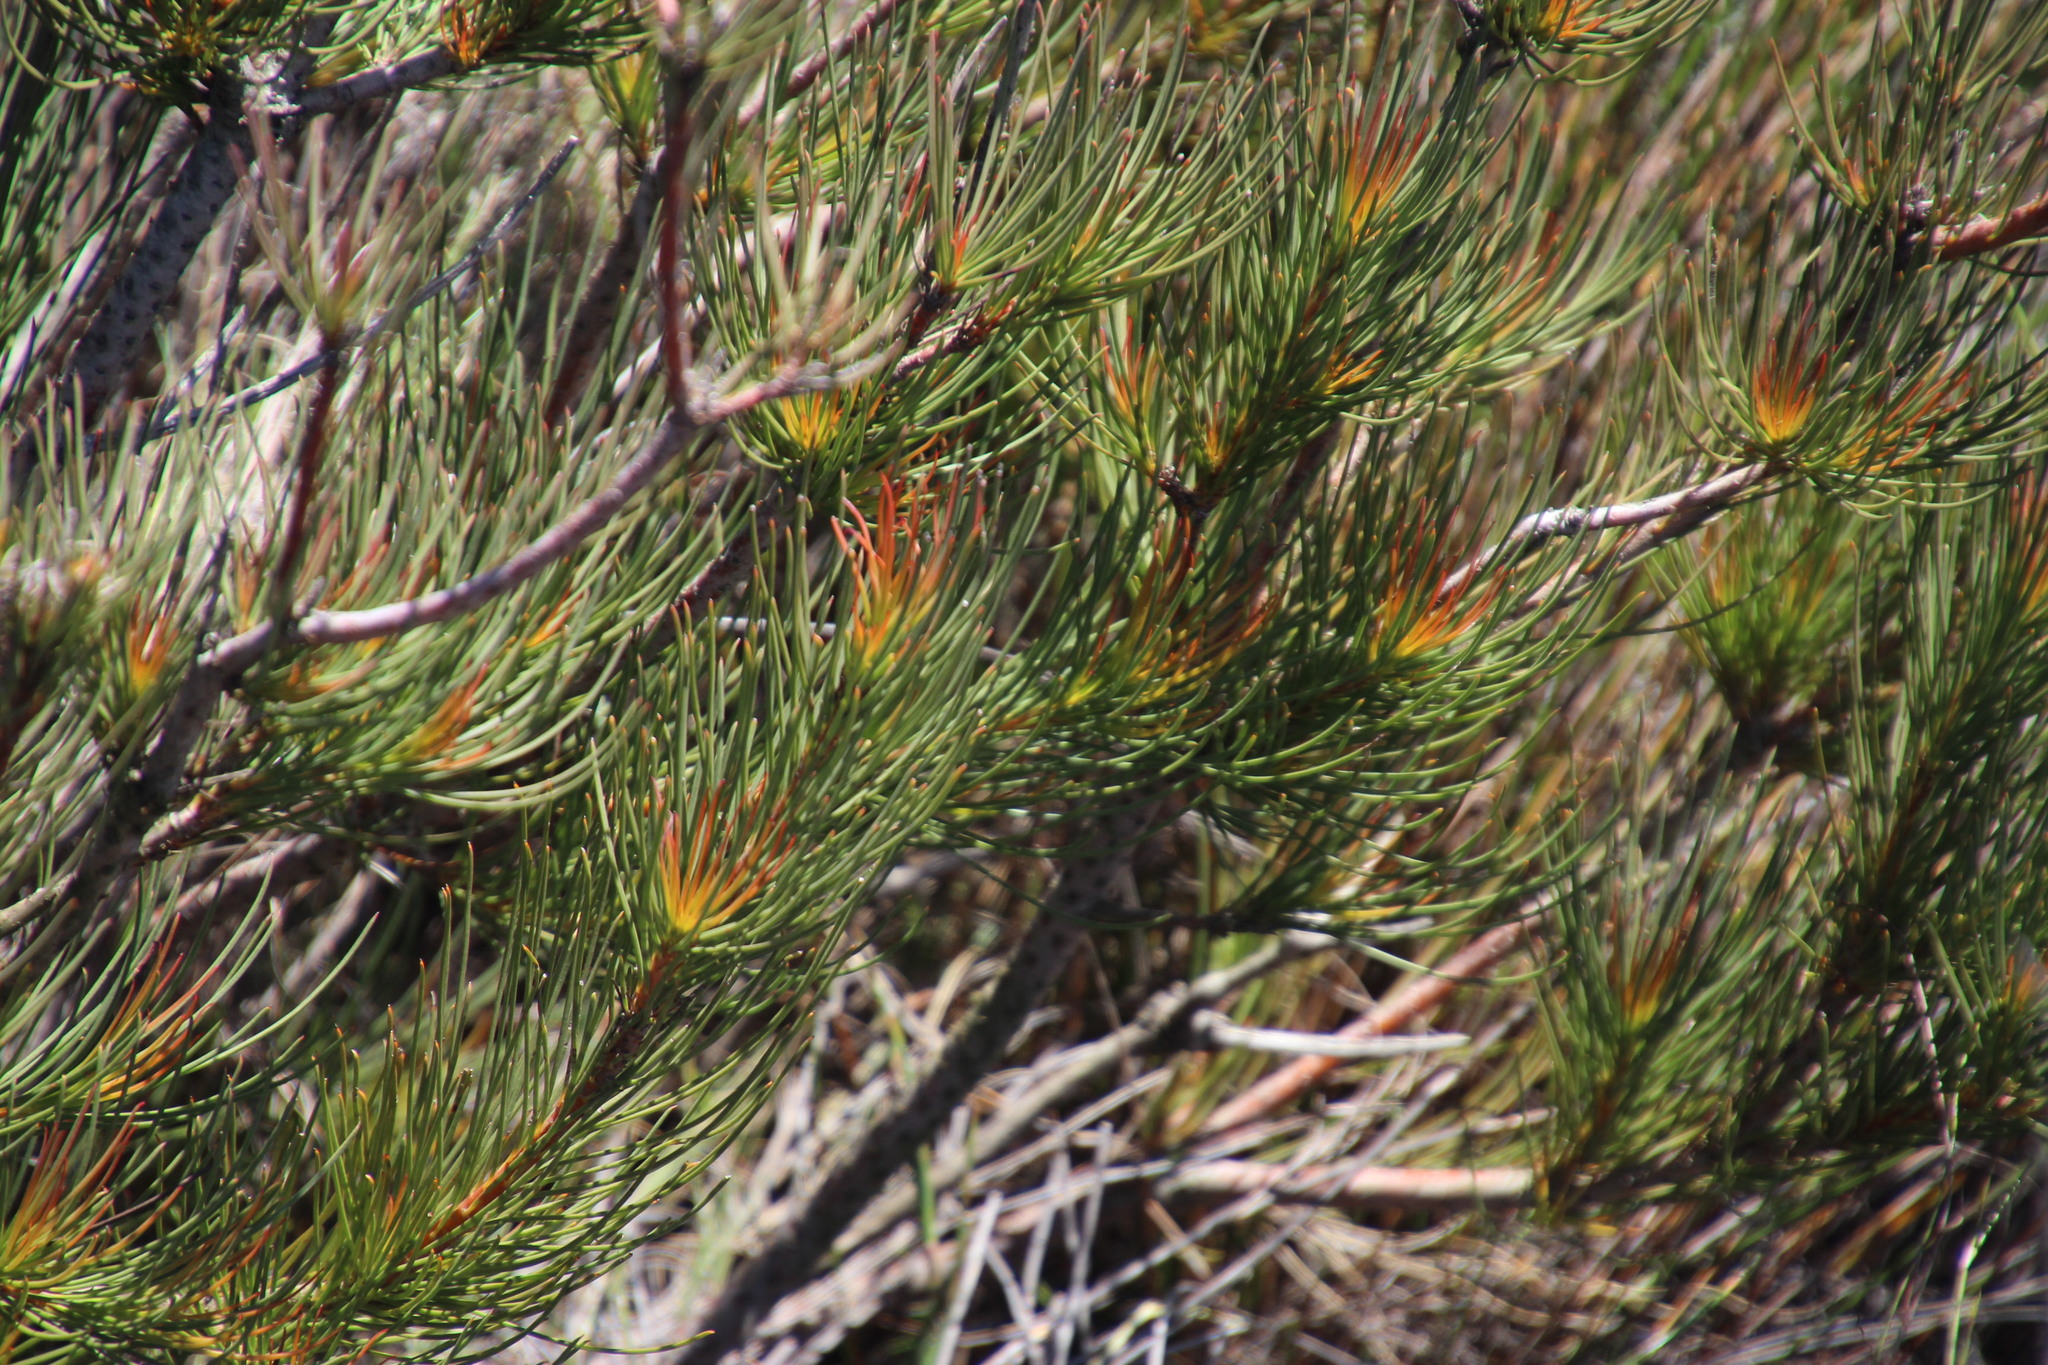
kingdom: Plantae
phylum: Tracheophyta
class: Magnoliopsida
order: Proteales
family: Proteaceae
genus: Aulax
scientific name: Aulax pallasia
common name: Needle-leaf featherbush
